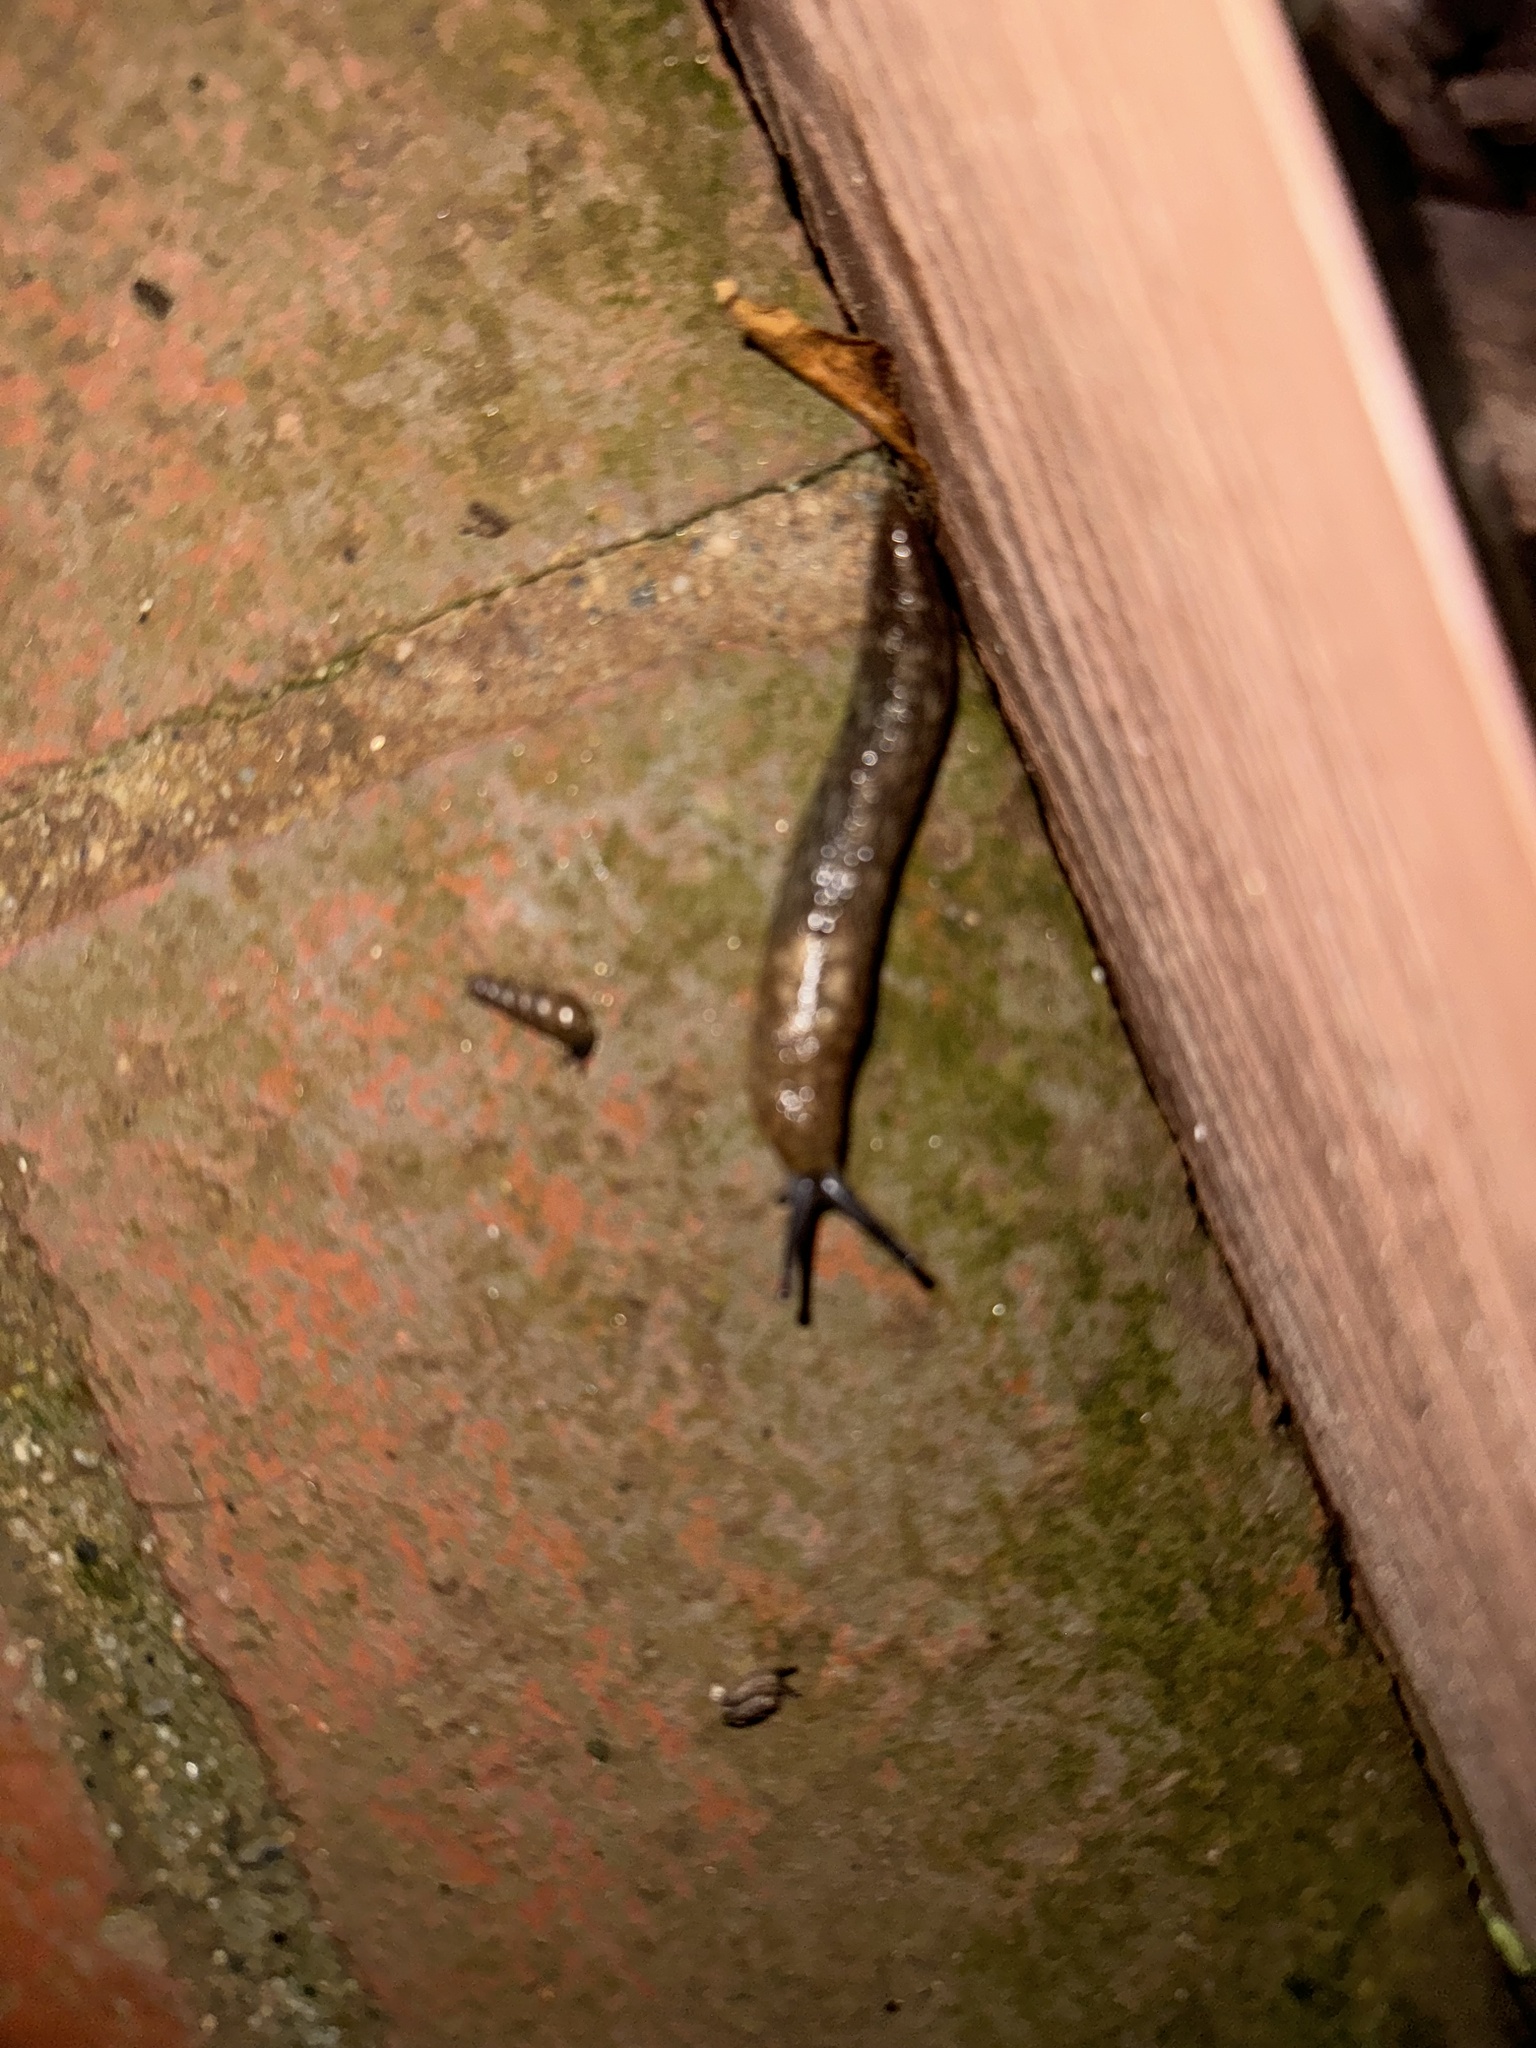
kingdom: Animalia
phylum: Mollusca
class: Gastropoda
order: Stylommatophora
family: Limacidae
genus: Limacus
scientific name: Limacus flavus
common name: Yellow gardenslug
